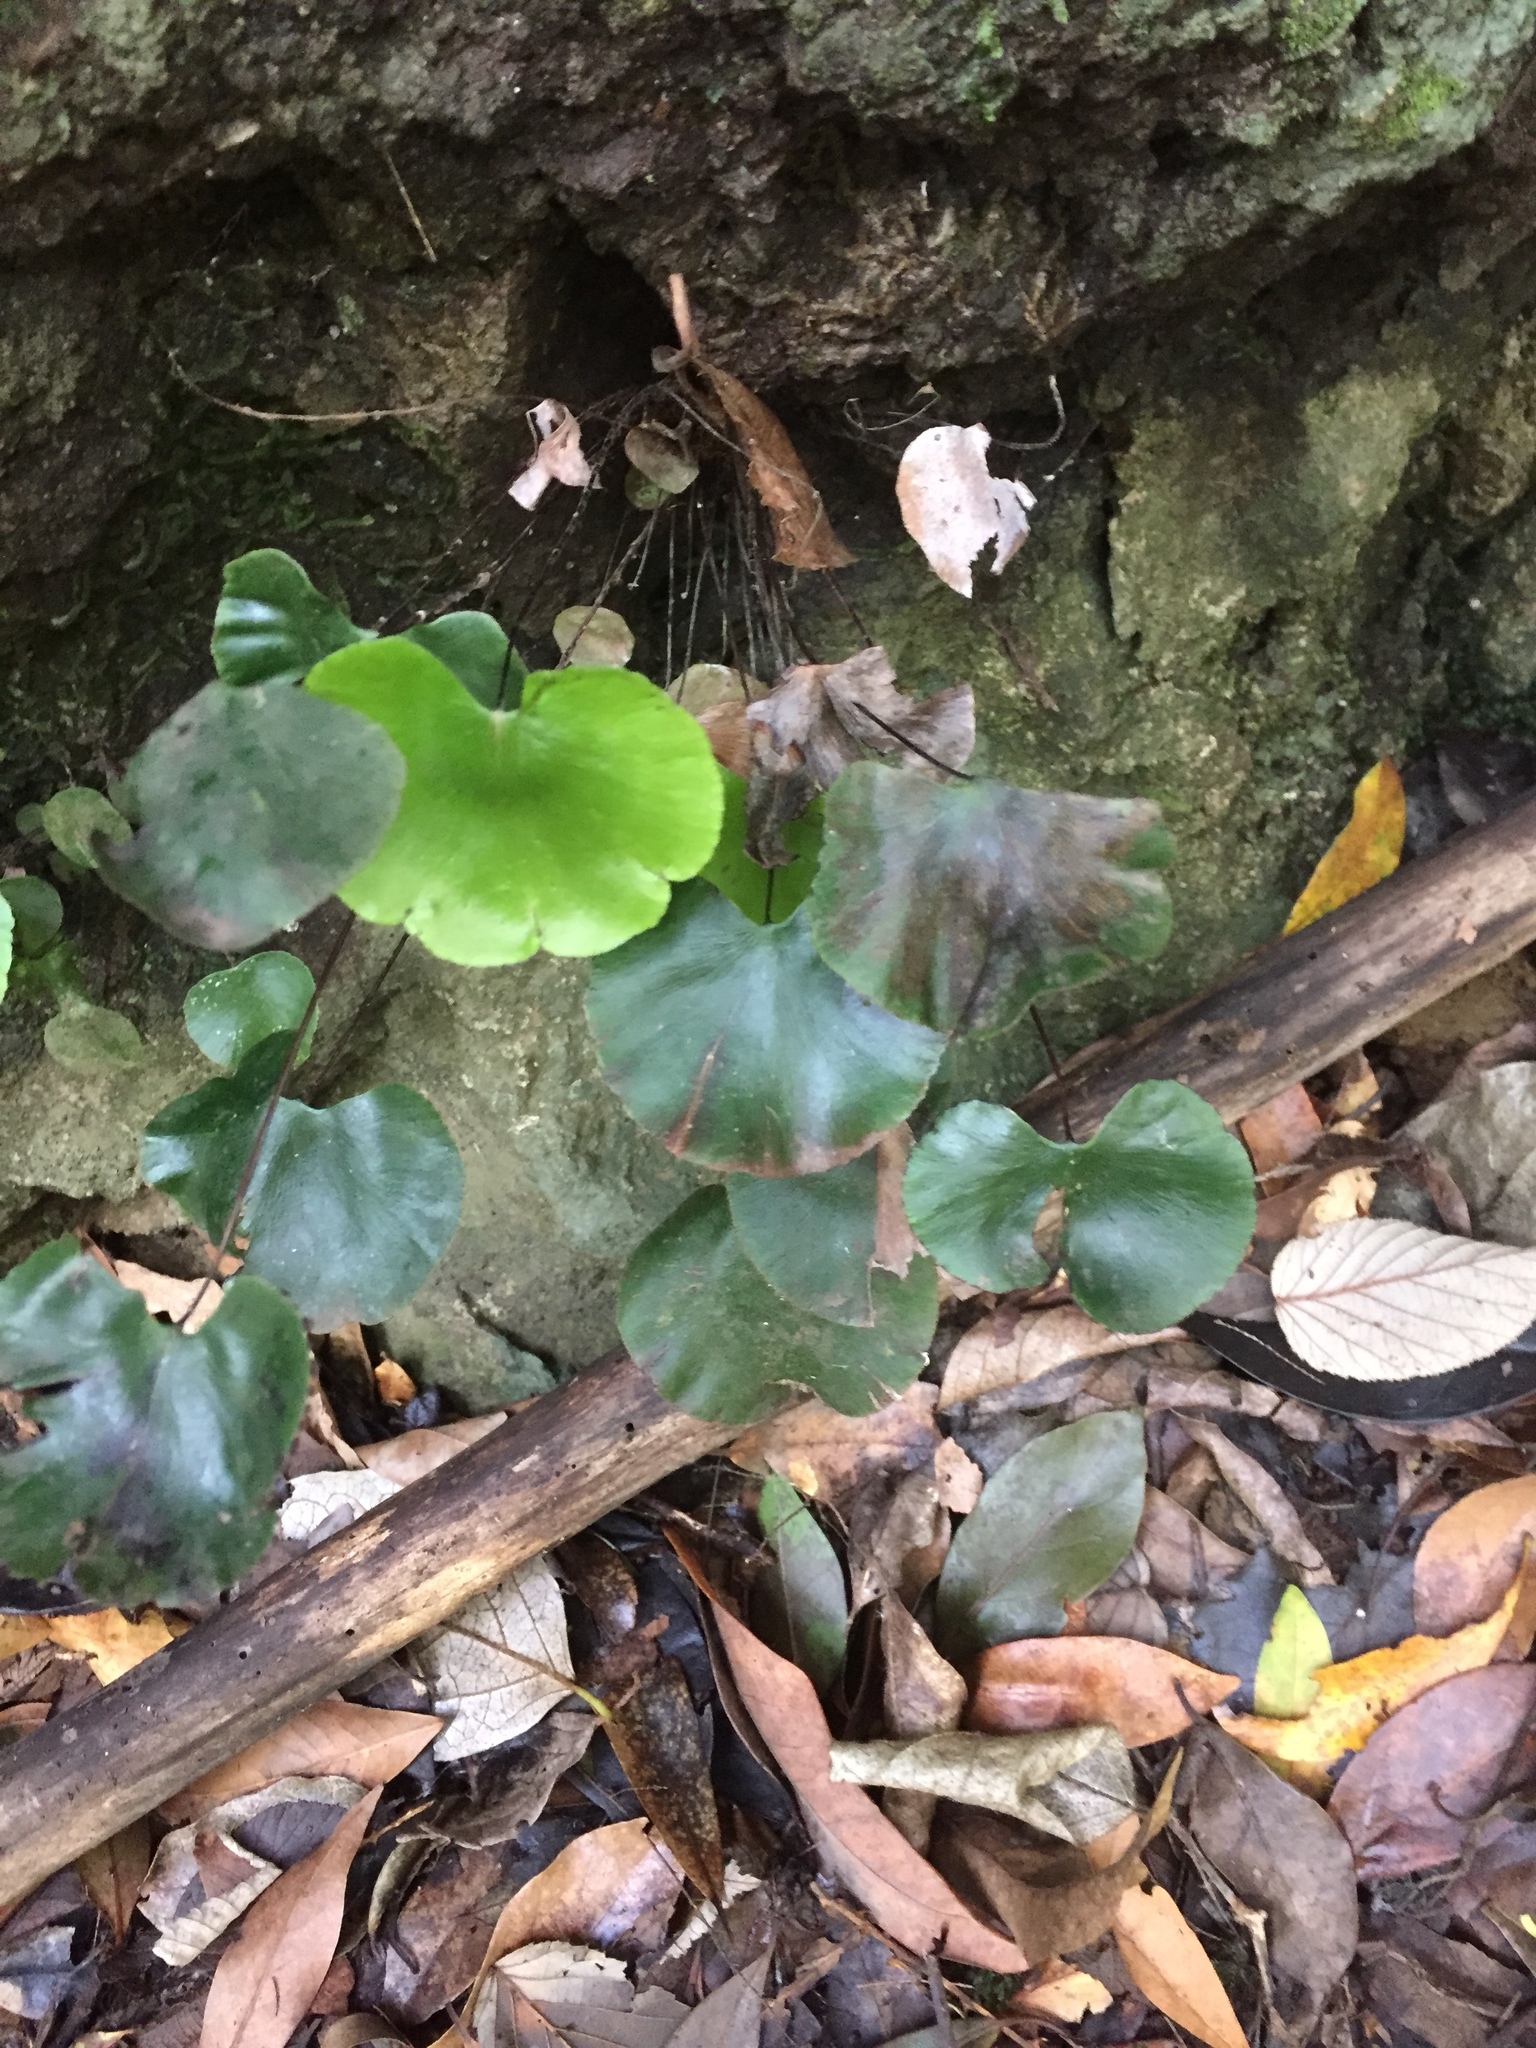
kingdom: Plantae
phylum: Tracheophyta
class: Polypodiopsida
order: Polypodiales
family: Pteridaceae
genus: Adiantum
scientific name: Adiantum reniforme
